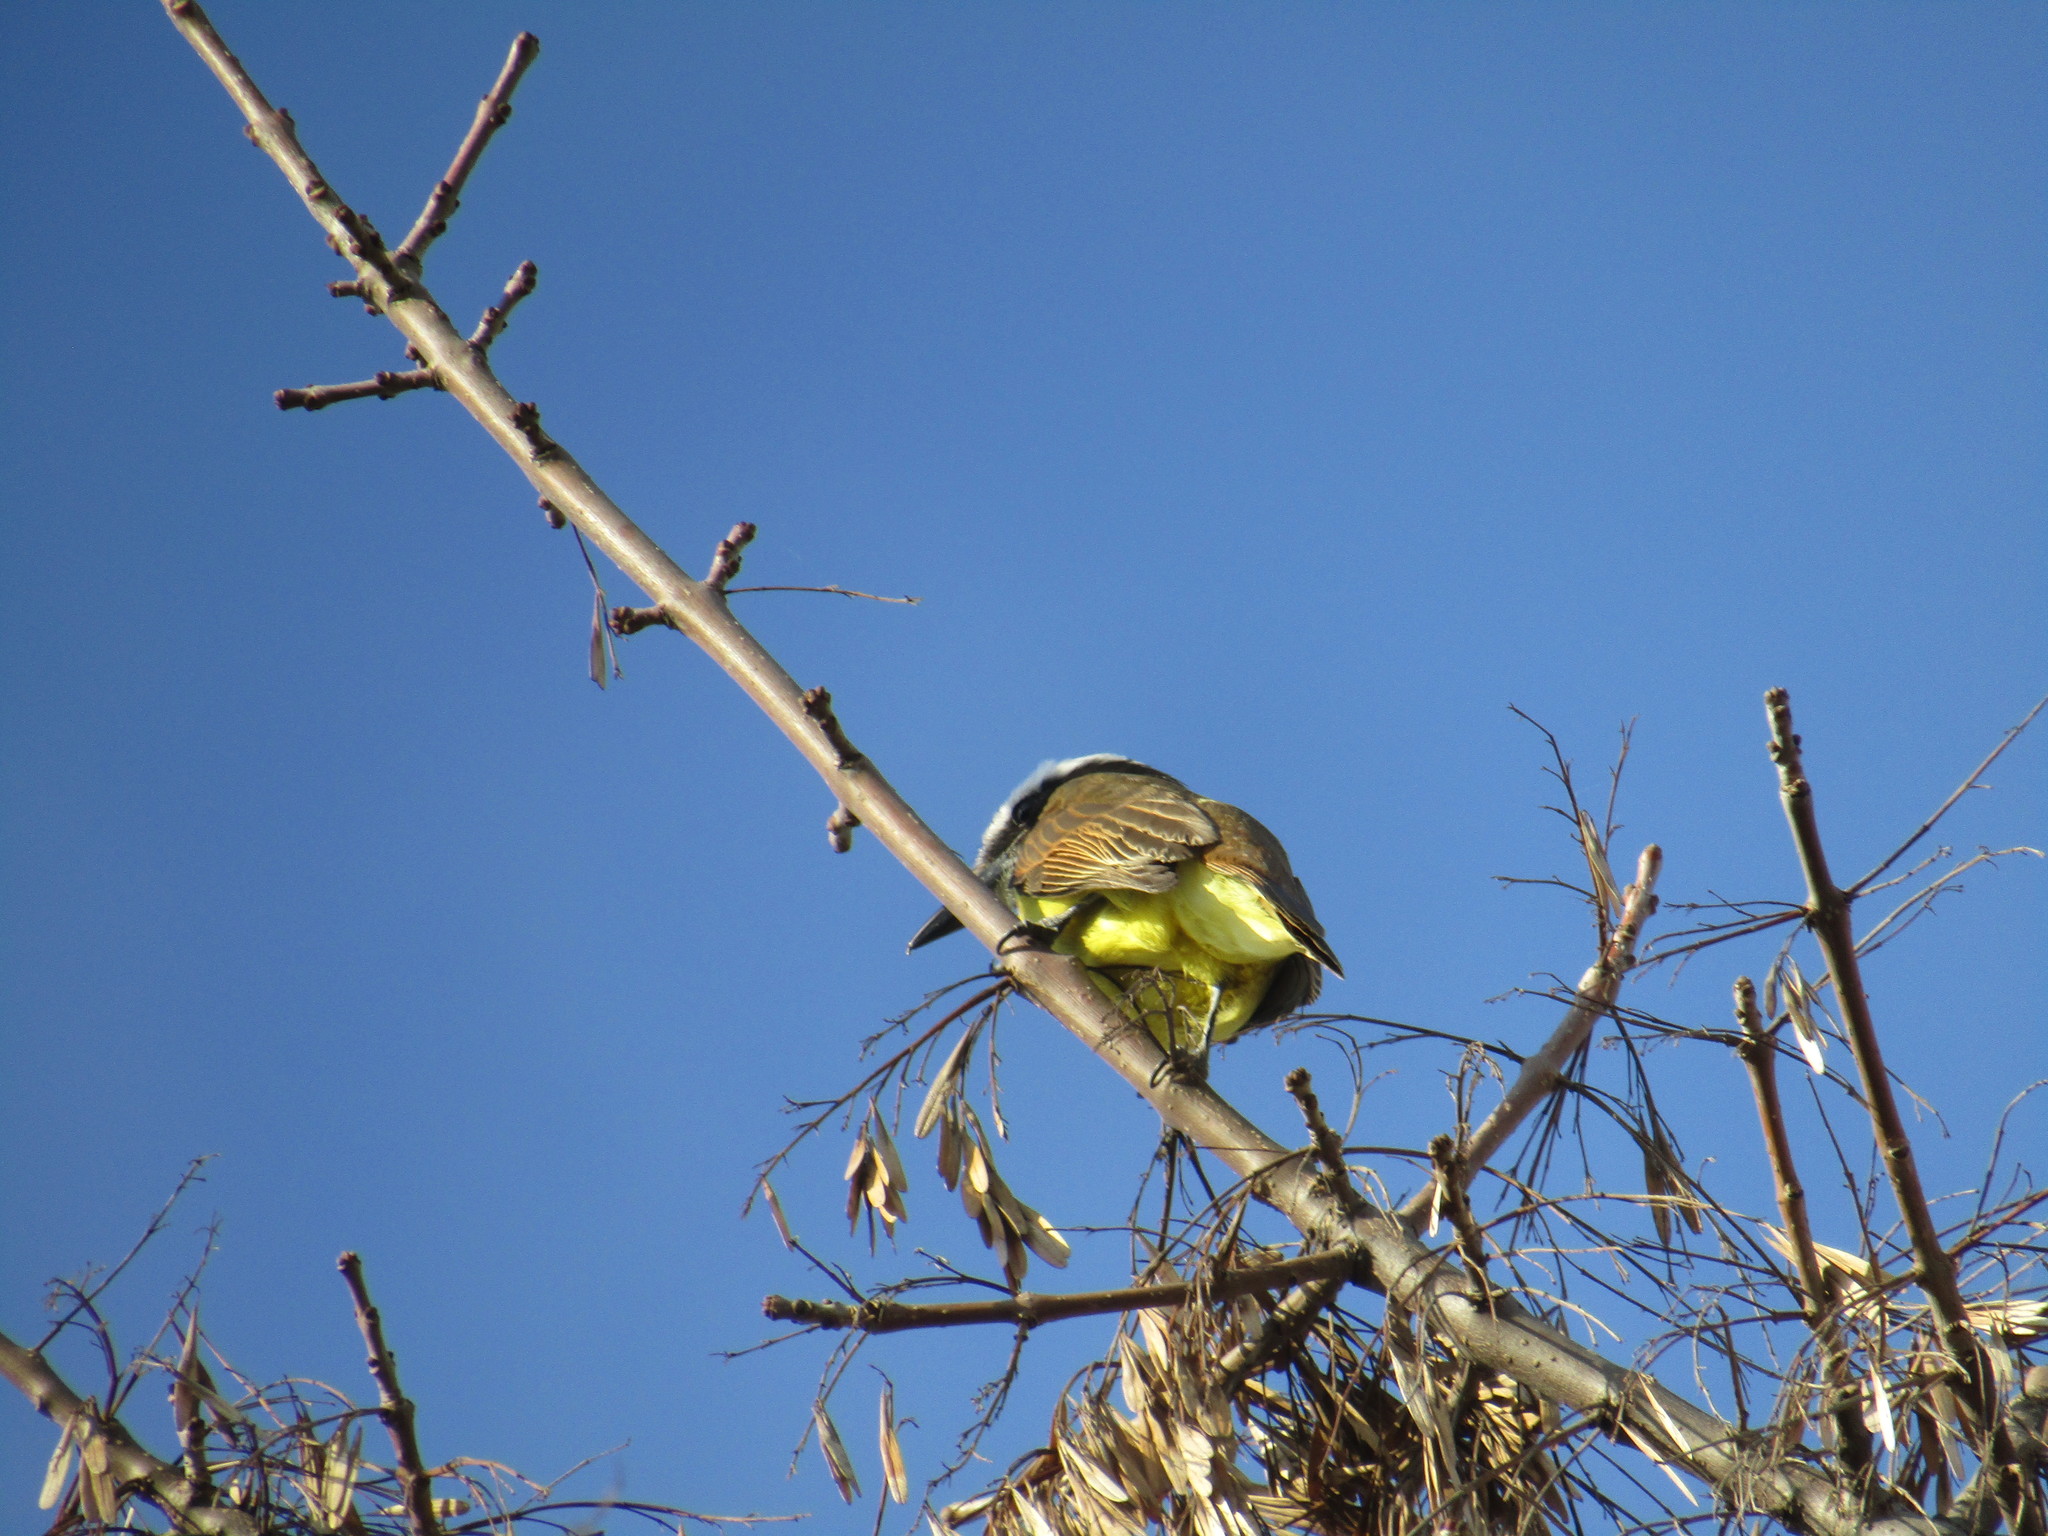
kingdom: Animalia
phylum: Chordata
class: Aves
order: Passeriformes
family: Tyrannidae
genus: Pitangus
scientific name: Pitangus sulphuratus
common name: Great kiskadee
